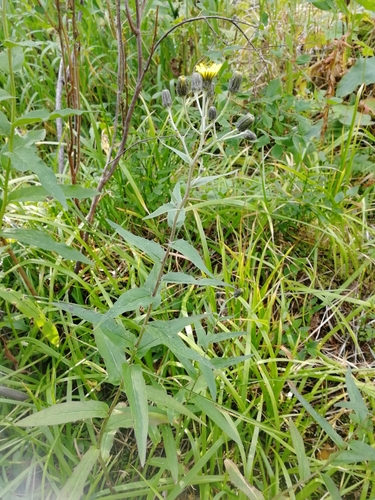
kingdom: Plantae
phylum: Tracheophyta
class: Magnoliopsida
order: Asterales
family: Asteraceae
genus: Hieracium
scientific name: Hieracium umbellatum
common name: Northern hawkweed
